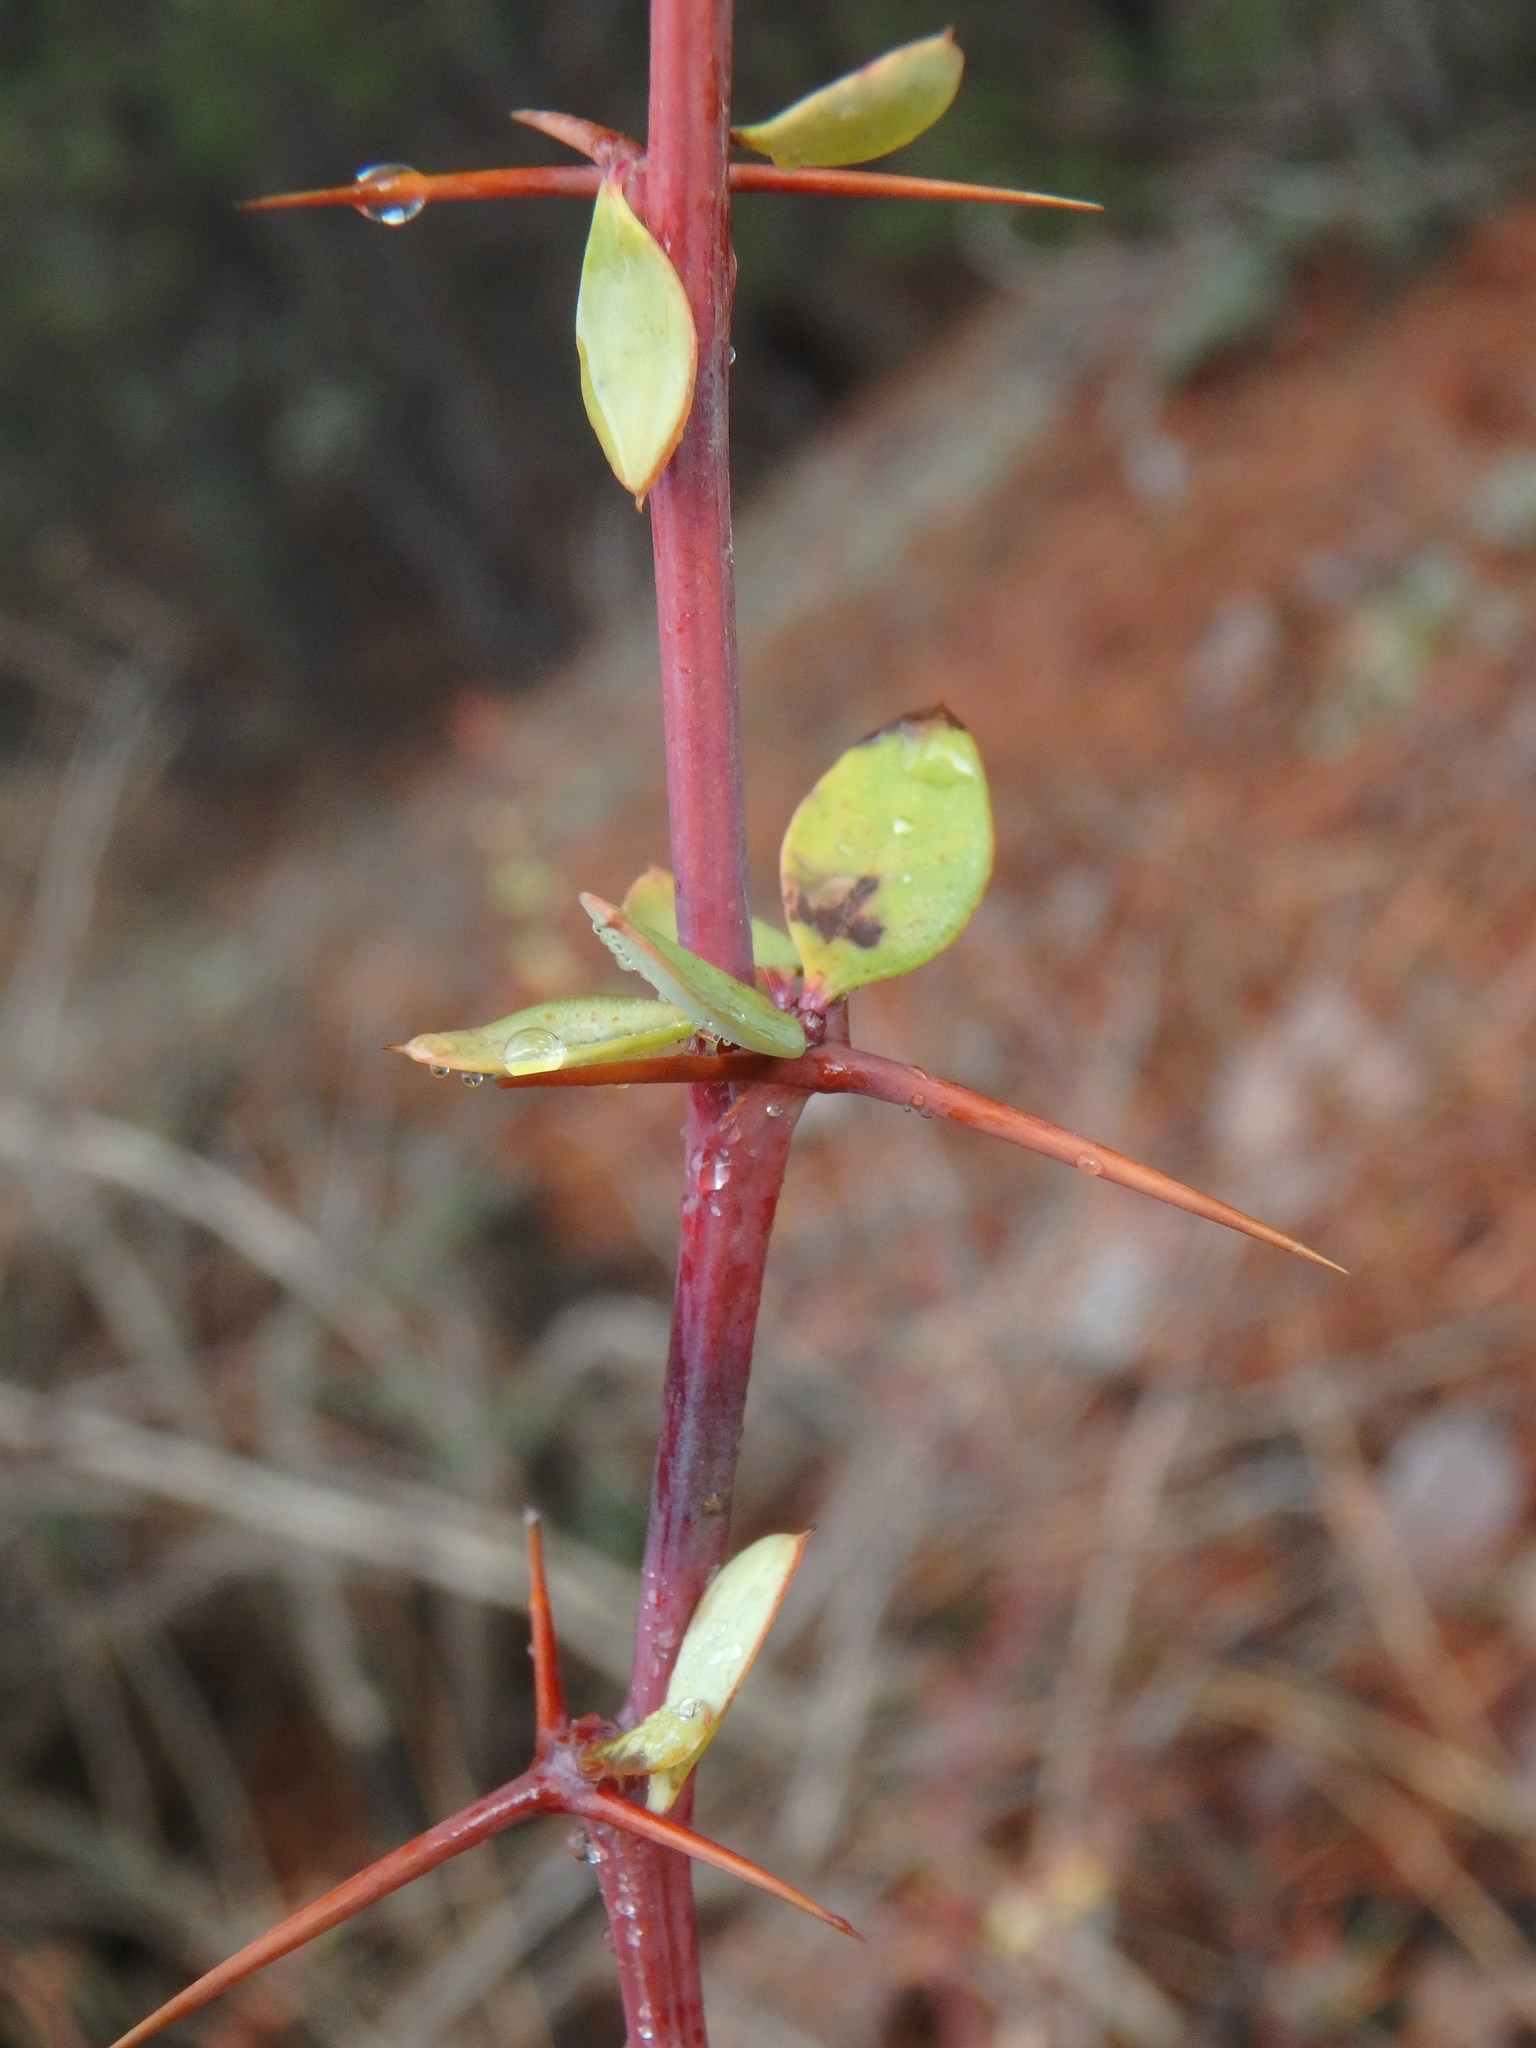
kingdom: Plantae
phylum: Tracheophyta
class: Magnoliopsida
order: Ranunculales
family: Berberidaceae
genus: Berberis
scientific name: Berberis cretica
